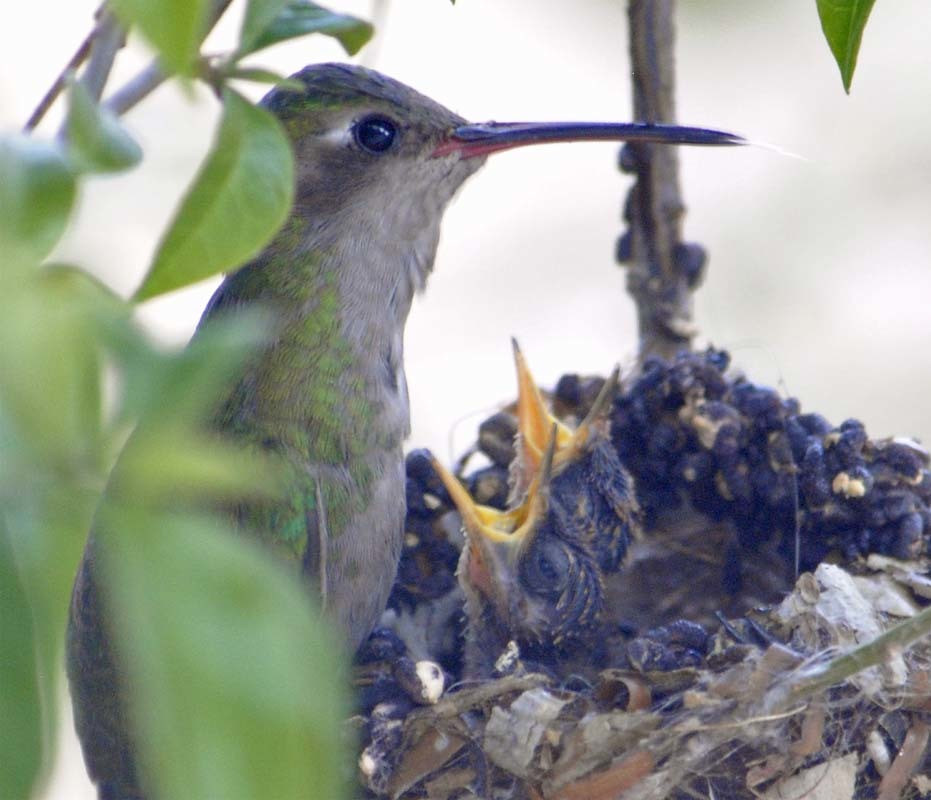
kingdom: Animalia
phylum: Chordata
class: Aves
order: Apodiformes
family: Trochilidae
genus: Cynanthus
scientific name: Cynanthus latirostris
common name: Broad-billed hummingbird
